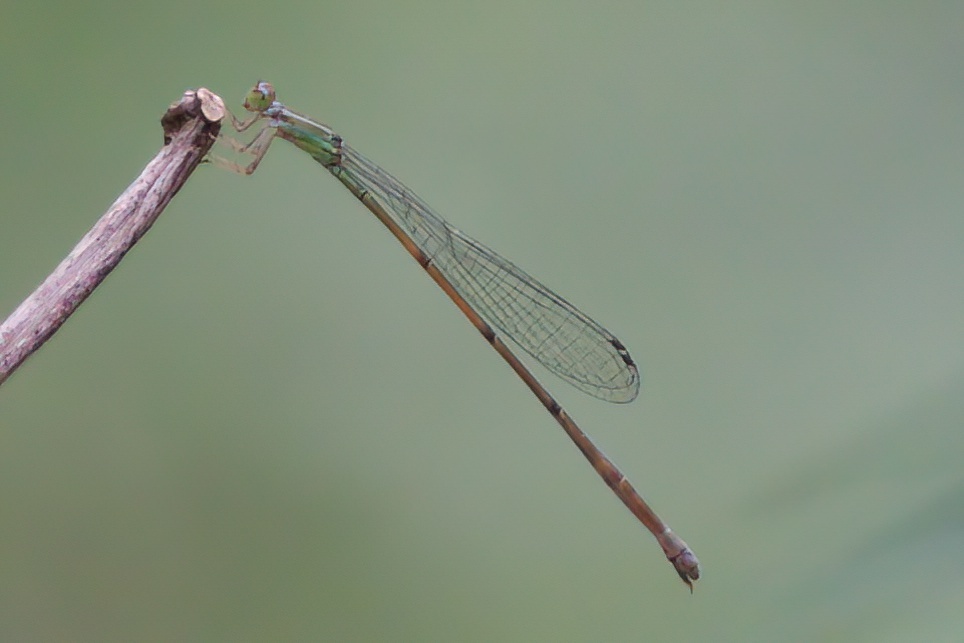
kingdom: Animalia
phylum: Arthropoda
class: Insecta
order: Odonata
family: Coenagrionidae
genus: Leptobasis
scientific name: Leptobasis lucifer
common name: Lucifer swampdamsel
